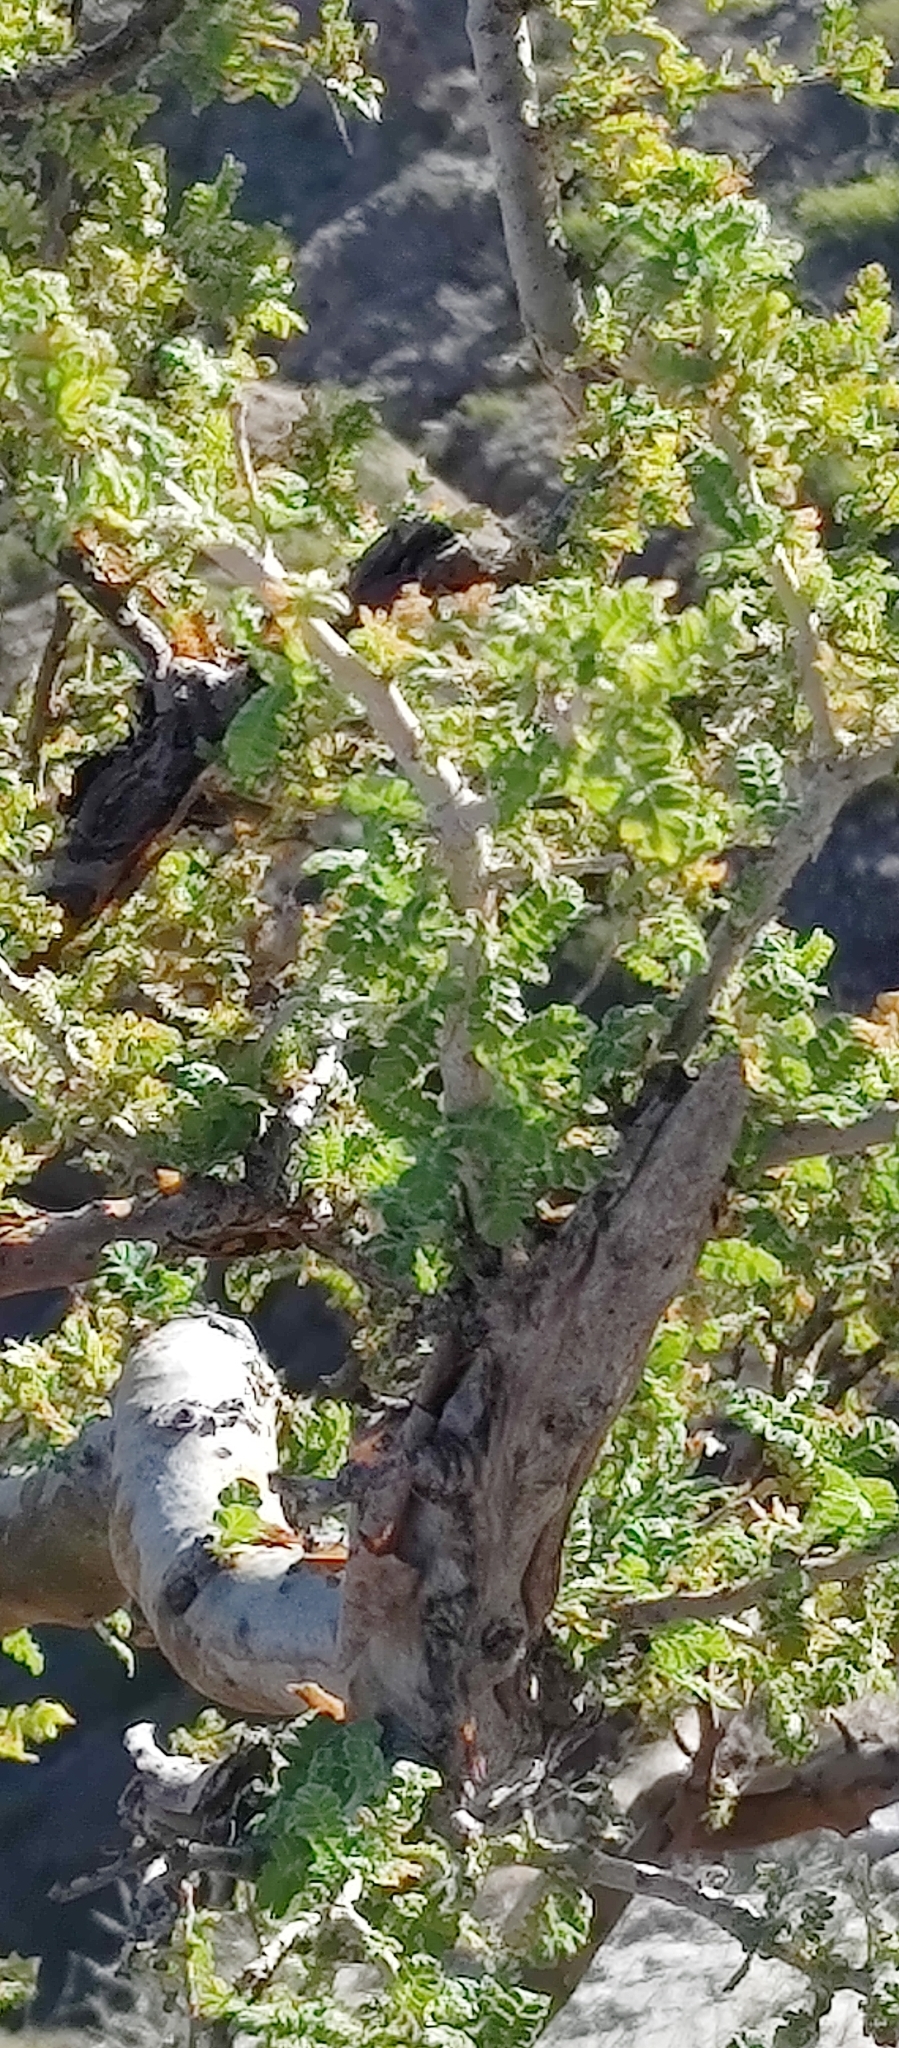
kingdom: Plantae
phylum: Tracheophyta
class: Magnoliopsida
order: Sapindales
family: Anacardiaceae
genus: Pachycormus
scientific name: Pachycormus discolor
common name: Succulent elephant trees
